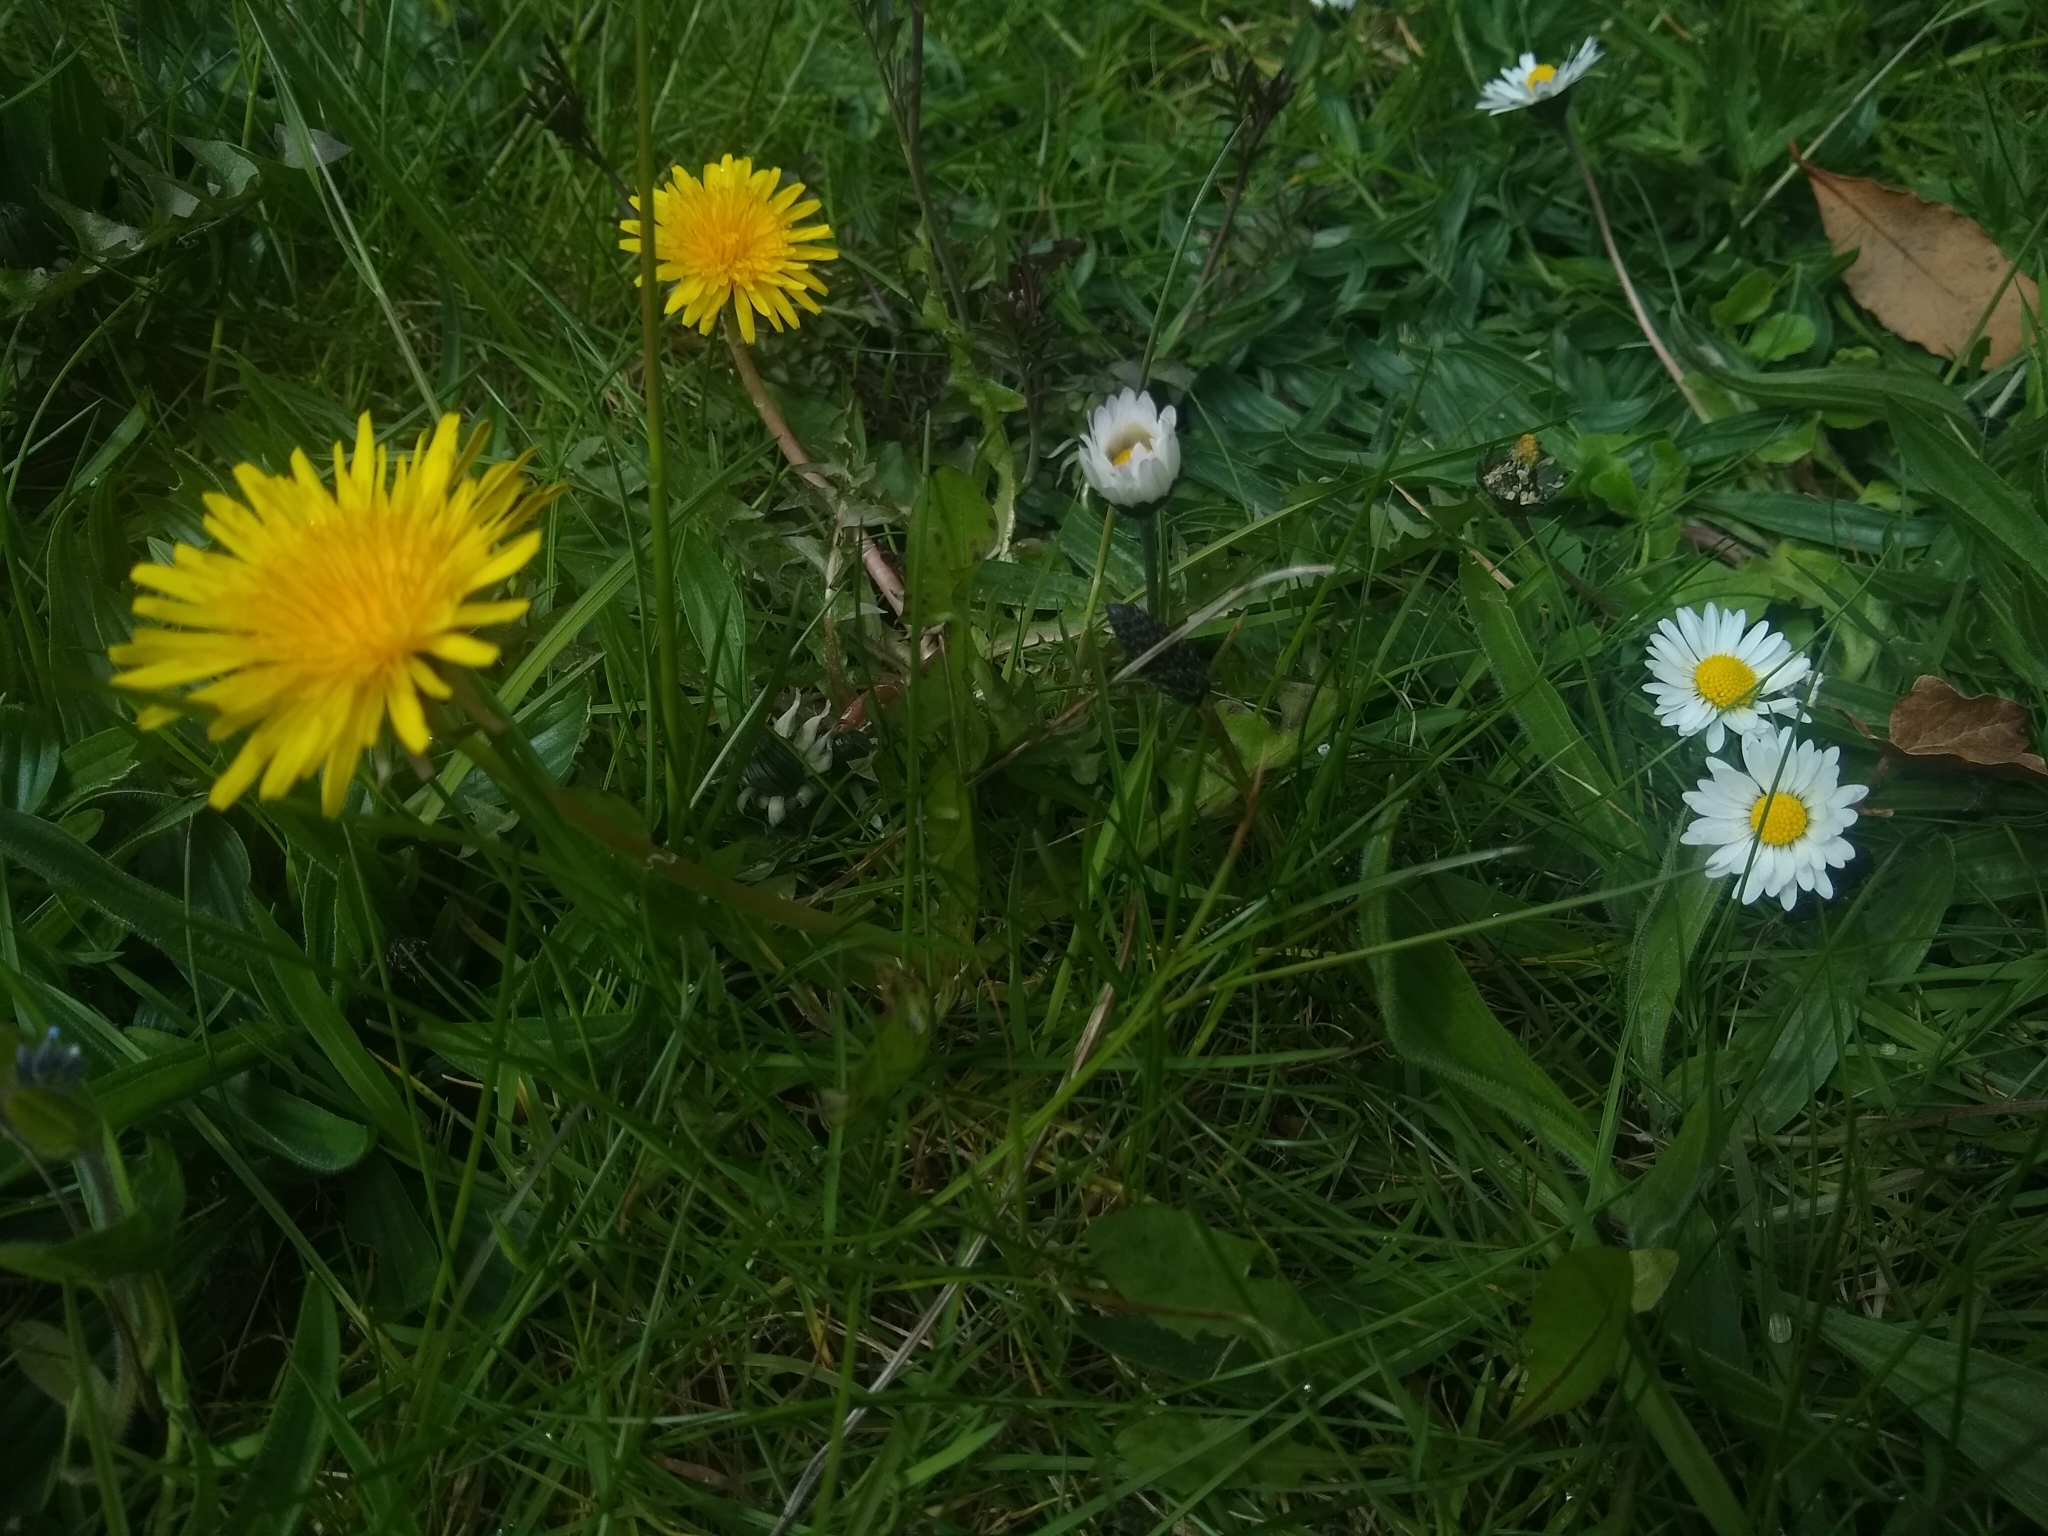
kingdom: Plantae
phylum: Tracheophyta
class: Magnoliopsida
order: Asterales
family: Asteraceae
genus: Bellis
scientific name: Bellis perennis
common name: Lawndaisy
